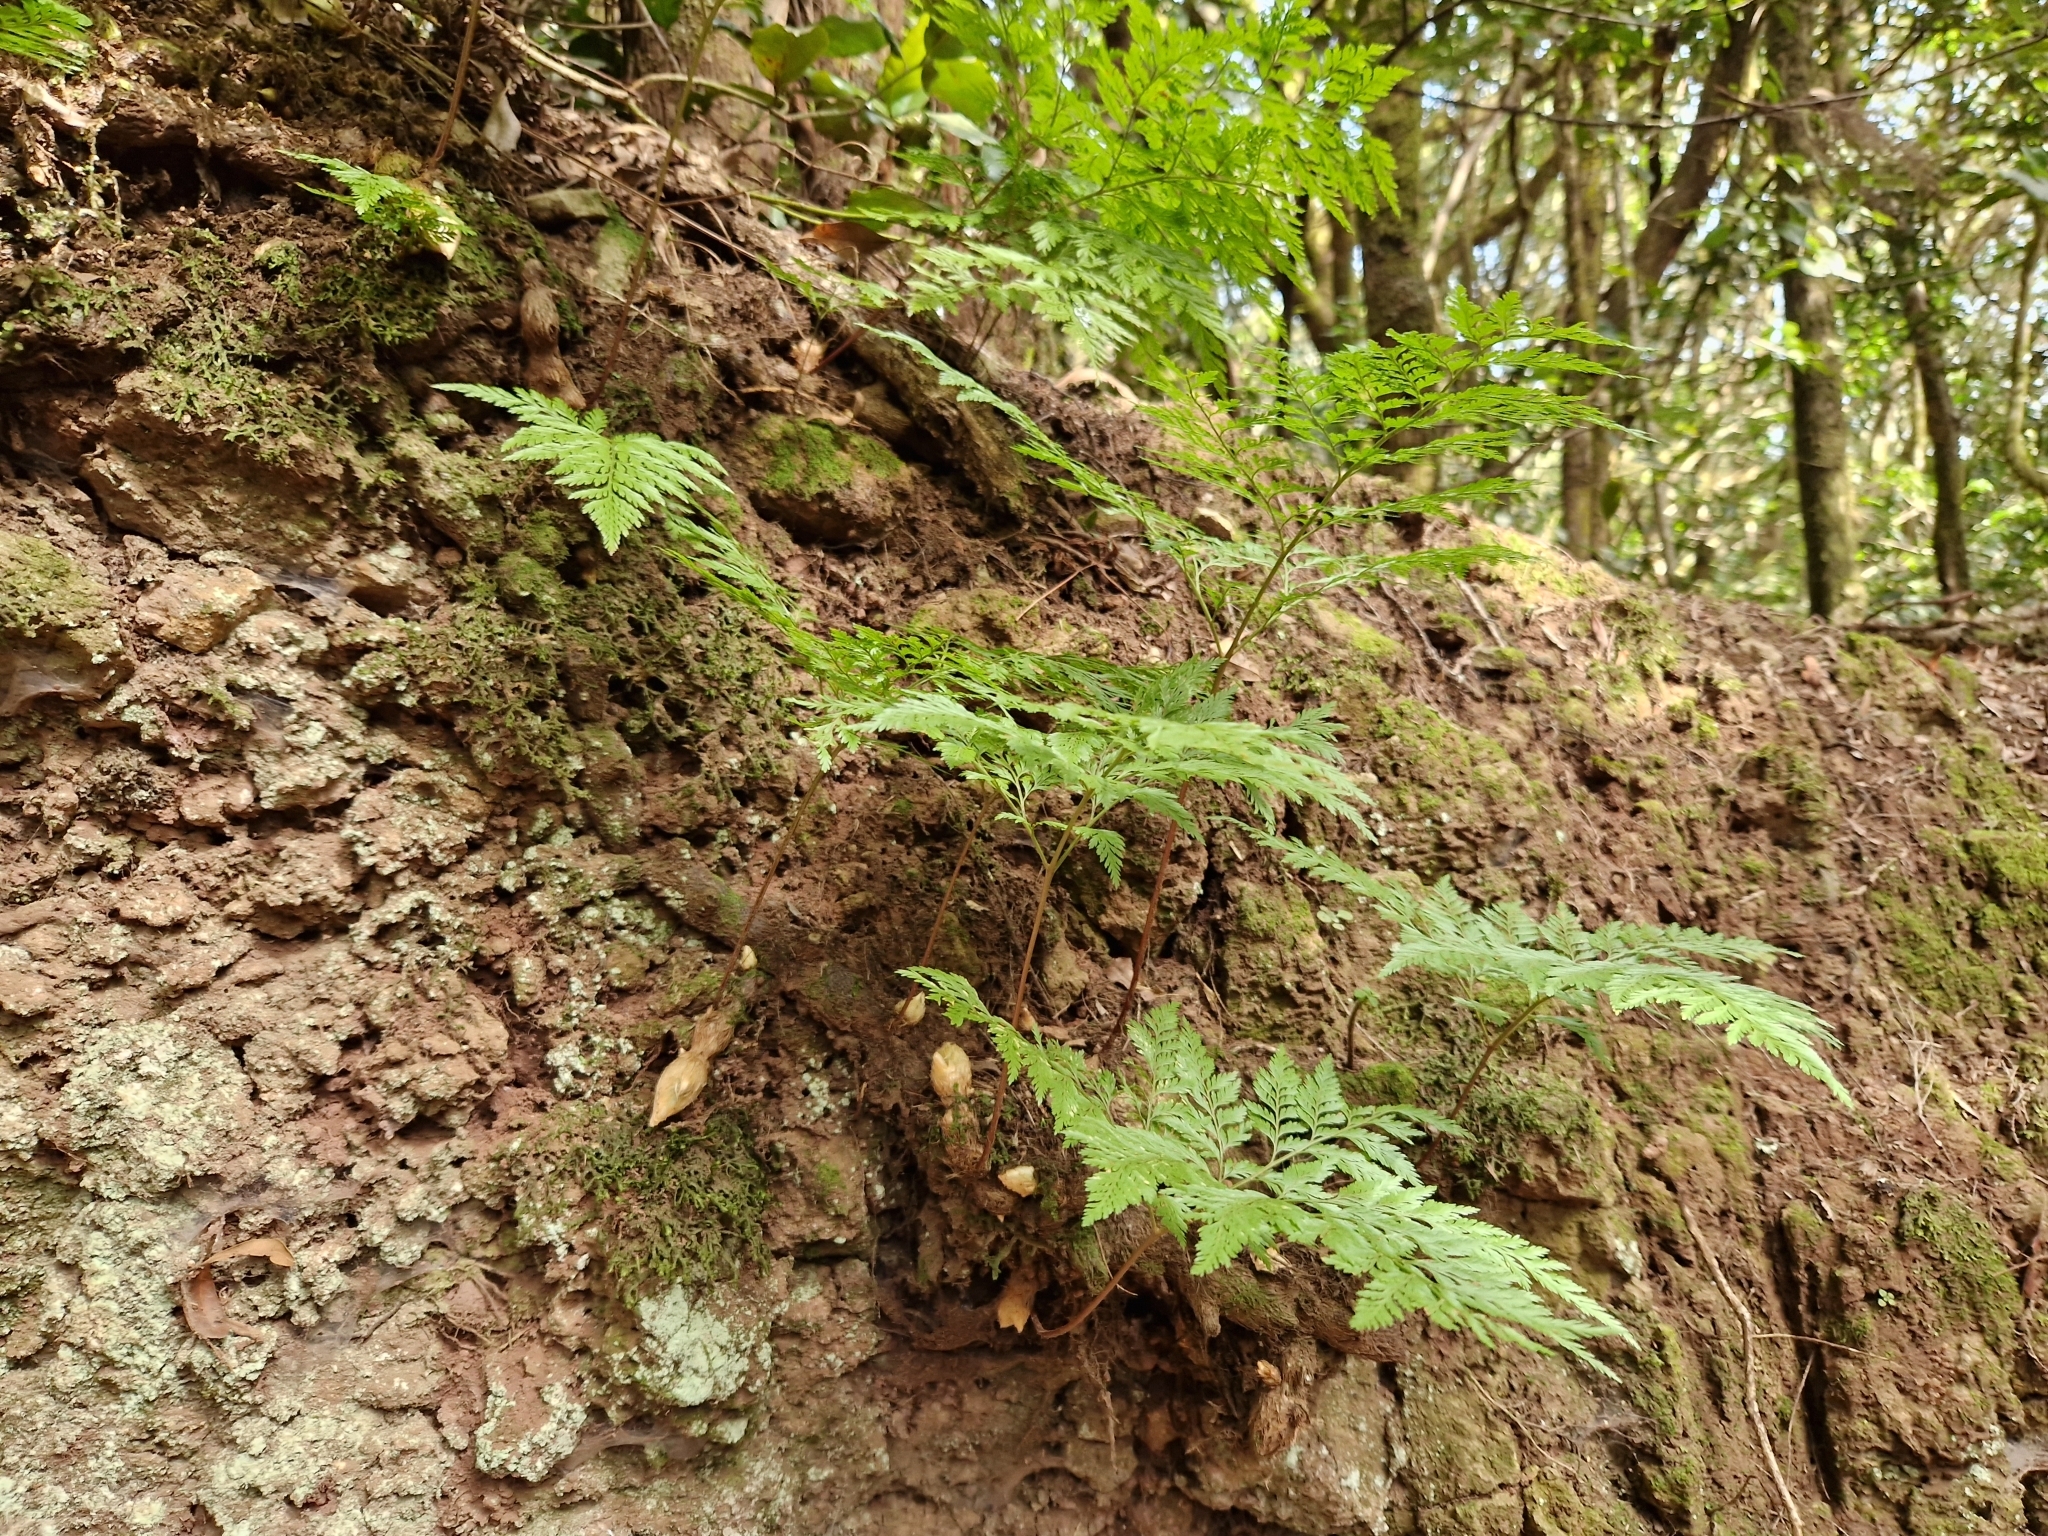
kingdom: Plantae
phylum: Tracheophyta
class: Polypodiopsida
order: Polypodiales
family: Davalliaceae
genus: Davallia
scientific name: Davallia canariensis
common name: Hare's-foot fern
